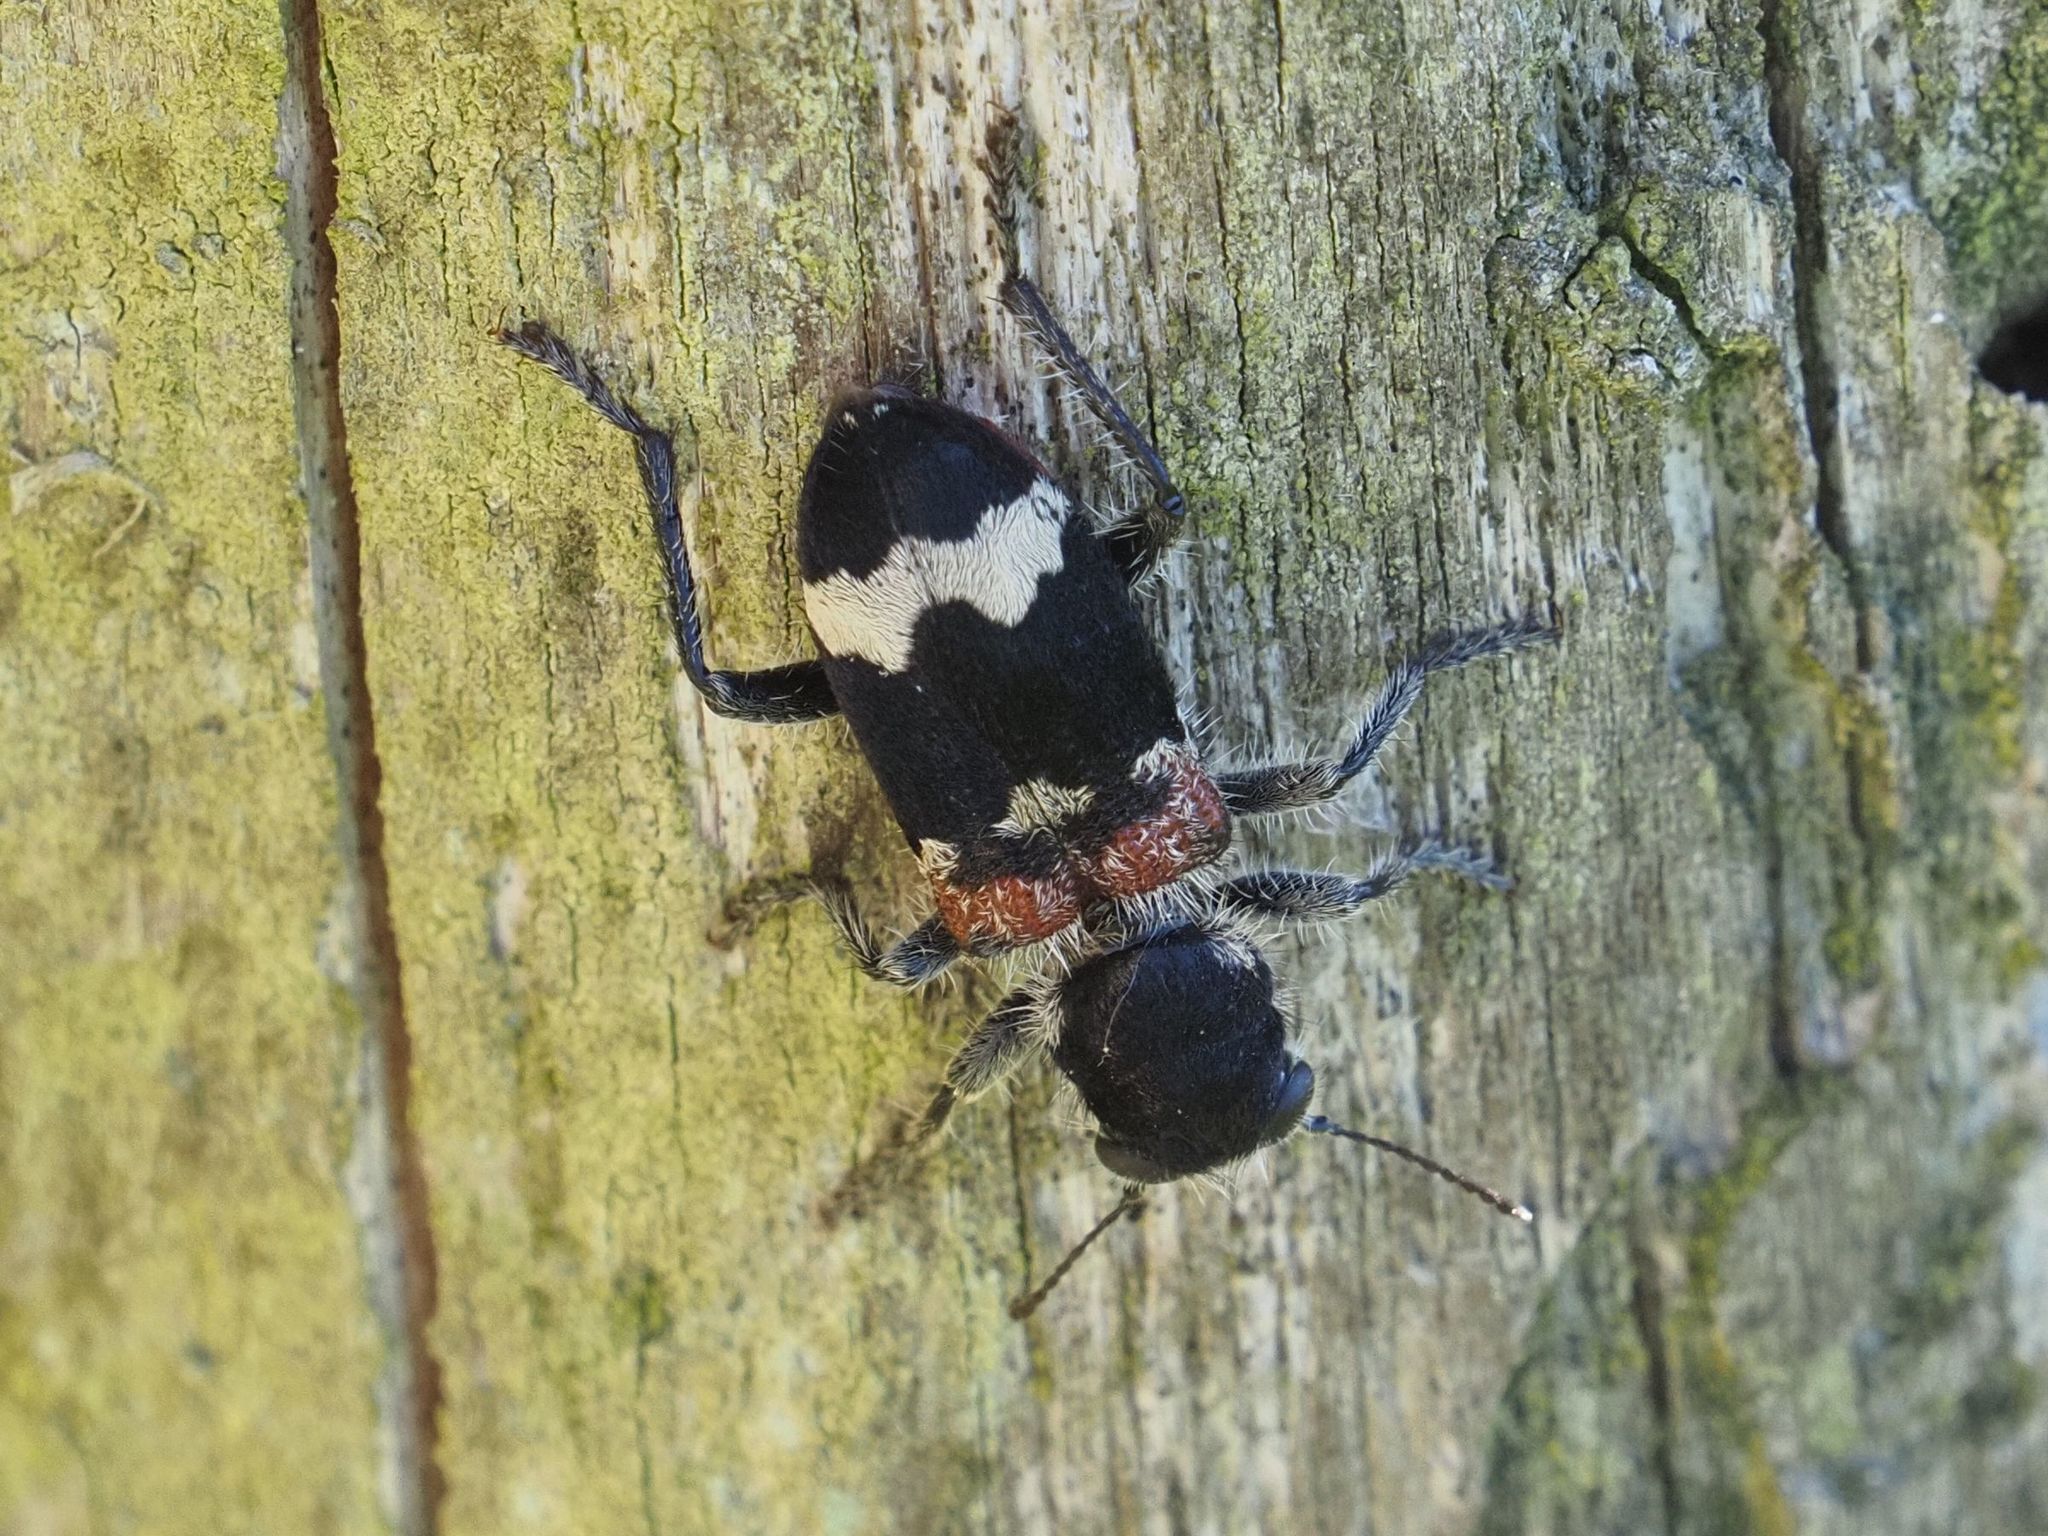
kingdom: Animalia
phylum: Arthropoda
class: Insecta
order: Coleoptera
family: Cleridae
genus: Clerus
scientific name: Clerus mutillarius
